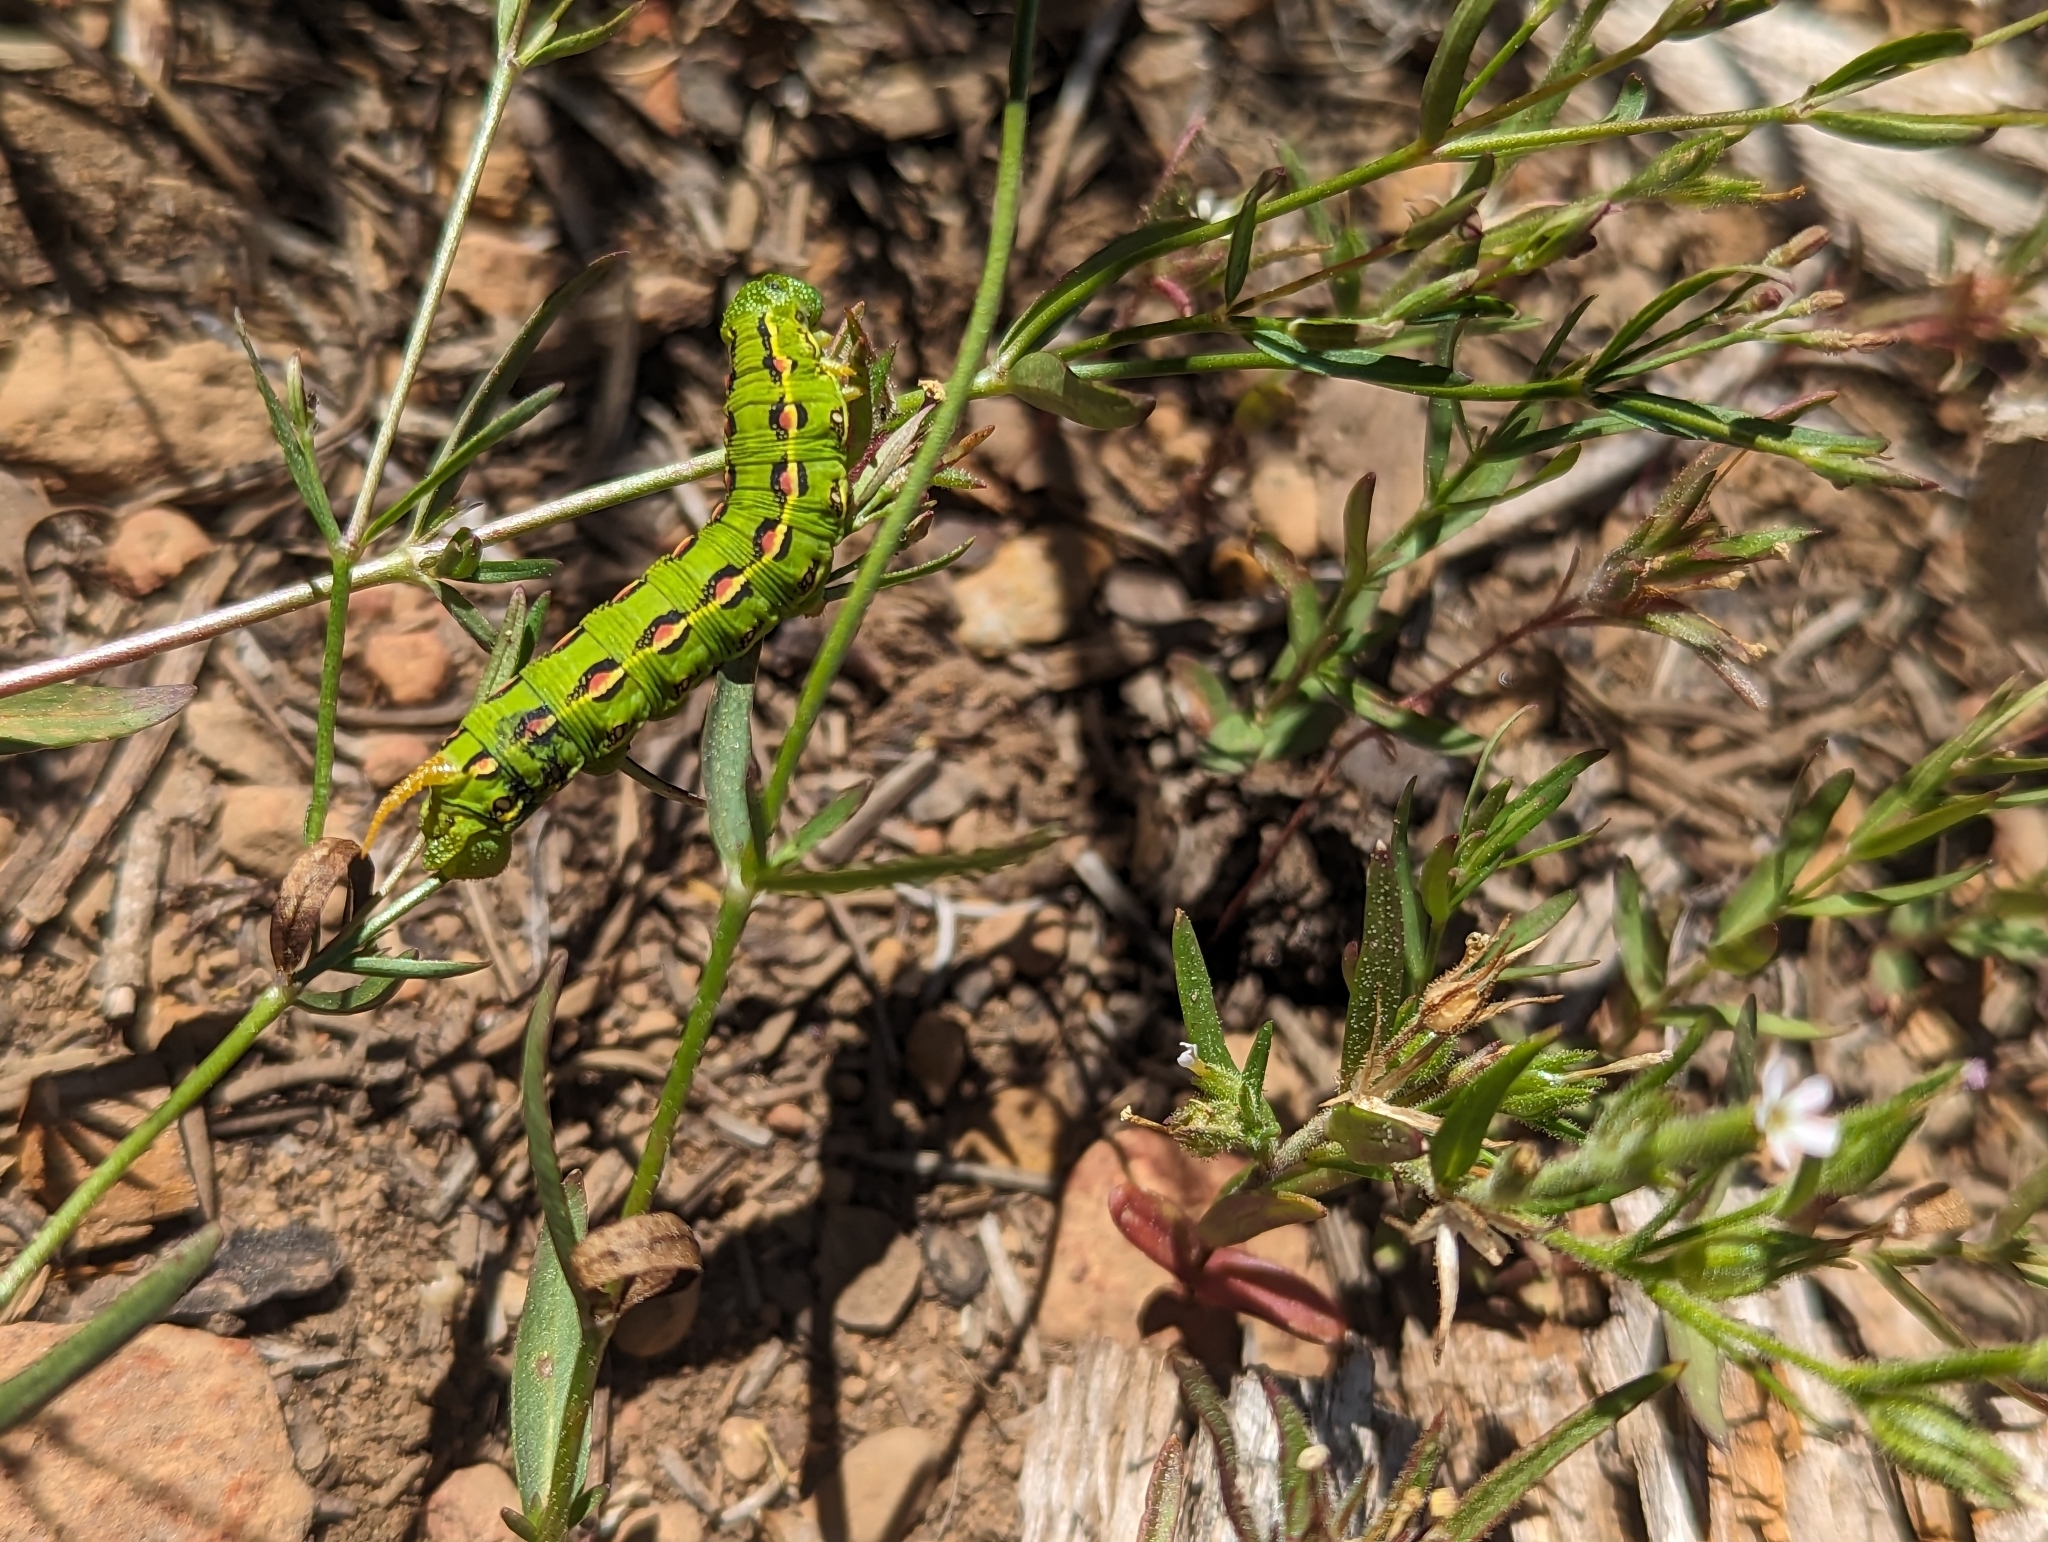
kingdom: Animalia
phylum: Arthropoda
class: Insecta
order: Lepidoptera
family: Sphingidae
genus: Hyles
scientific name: Hyles lineata
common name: White-lined sphinx
